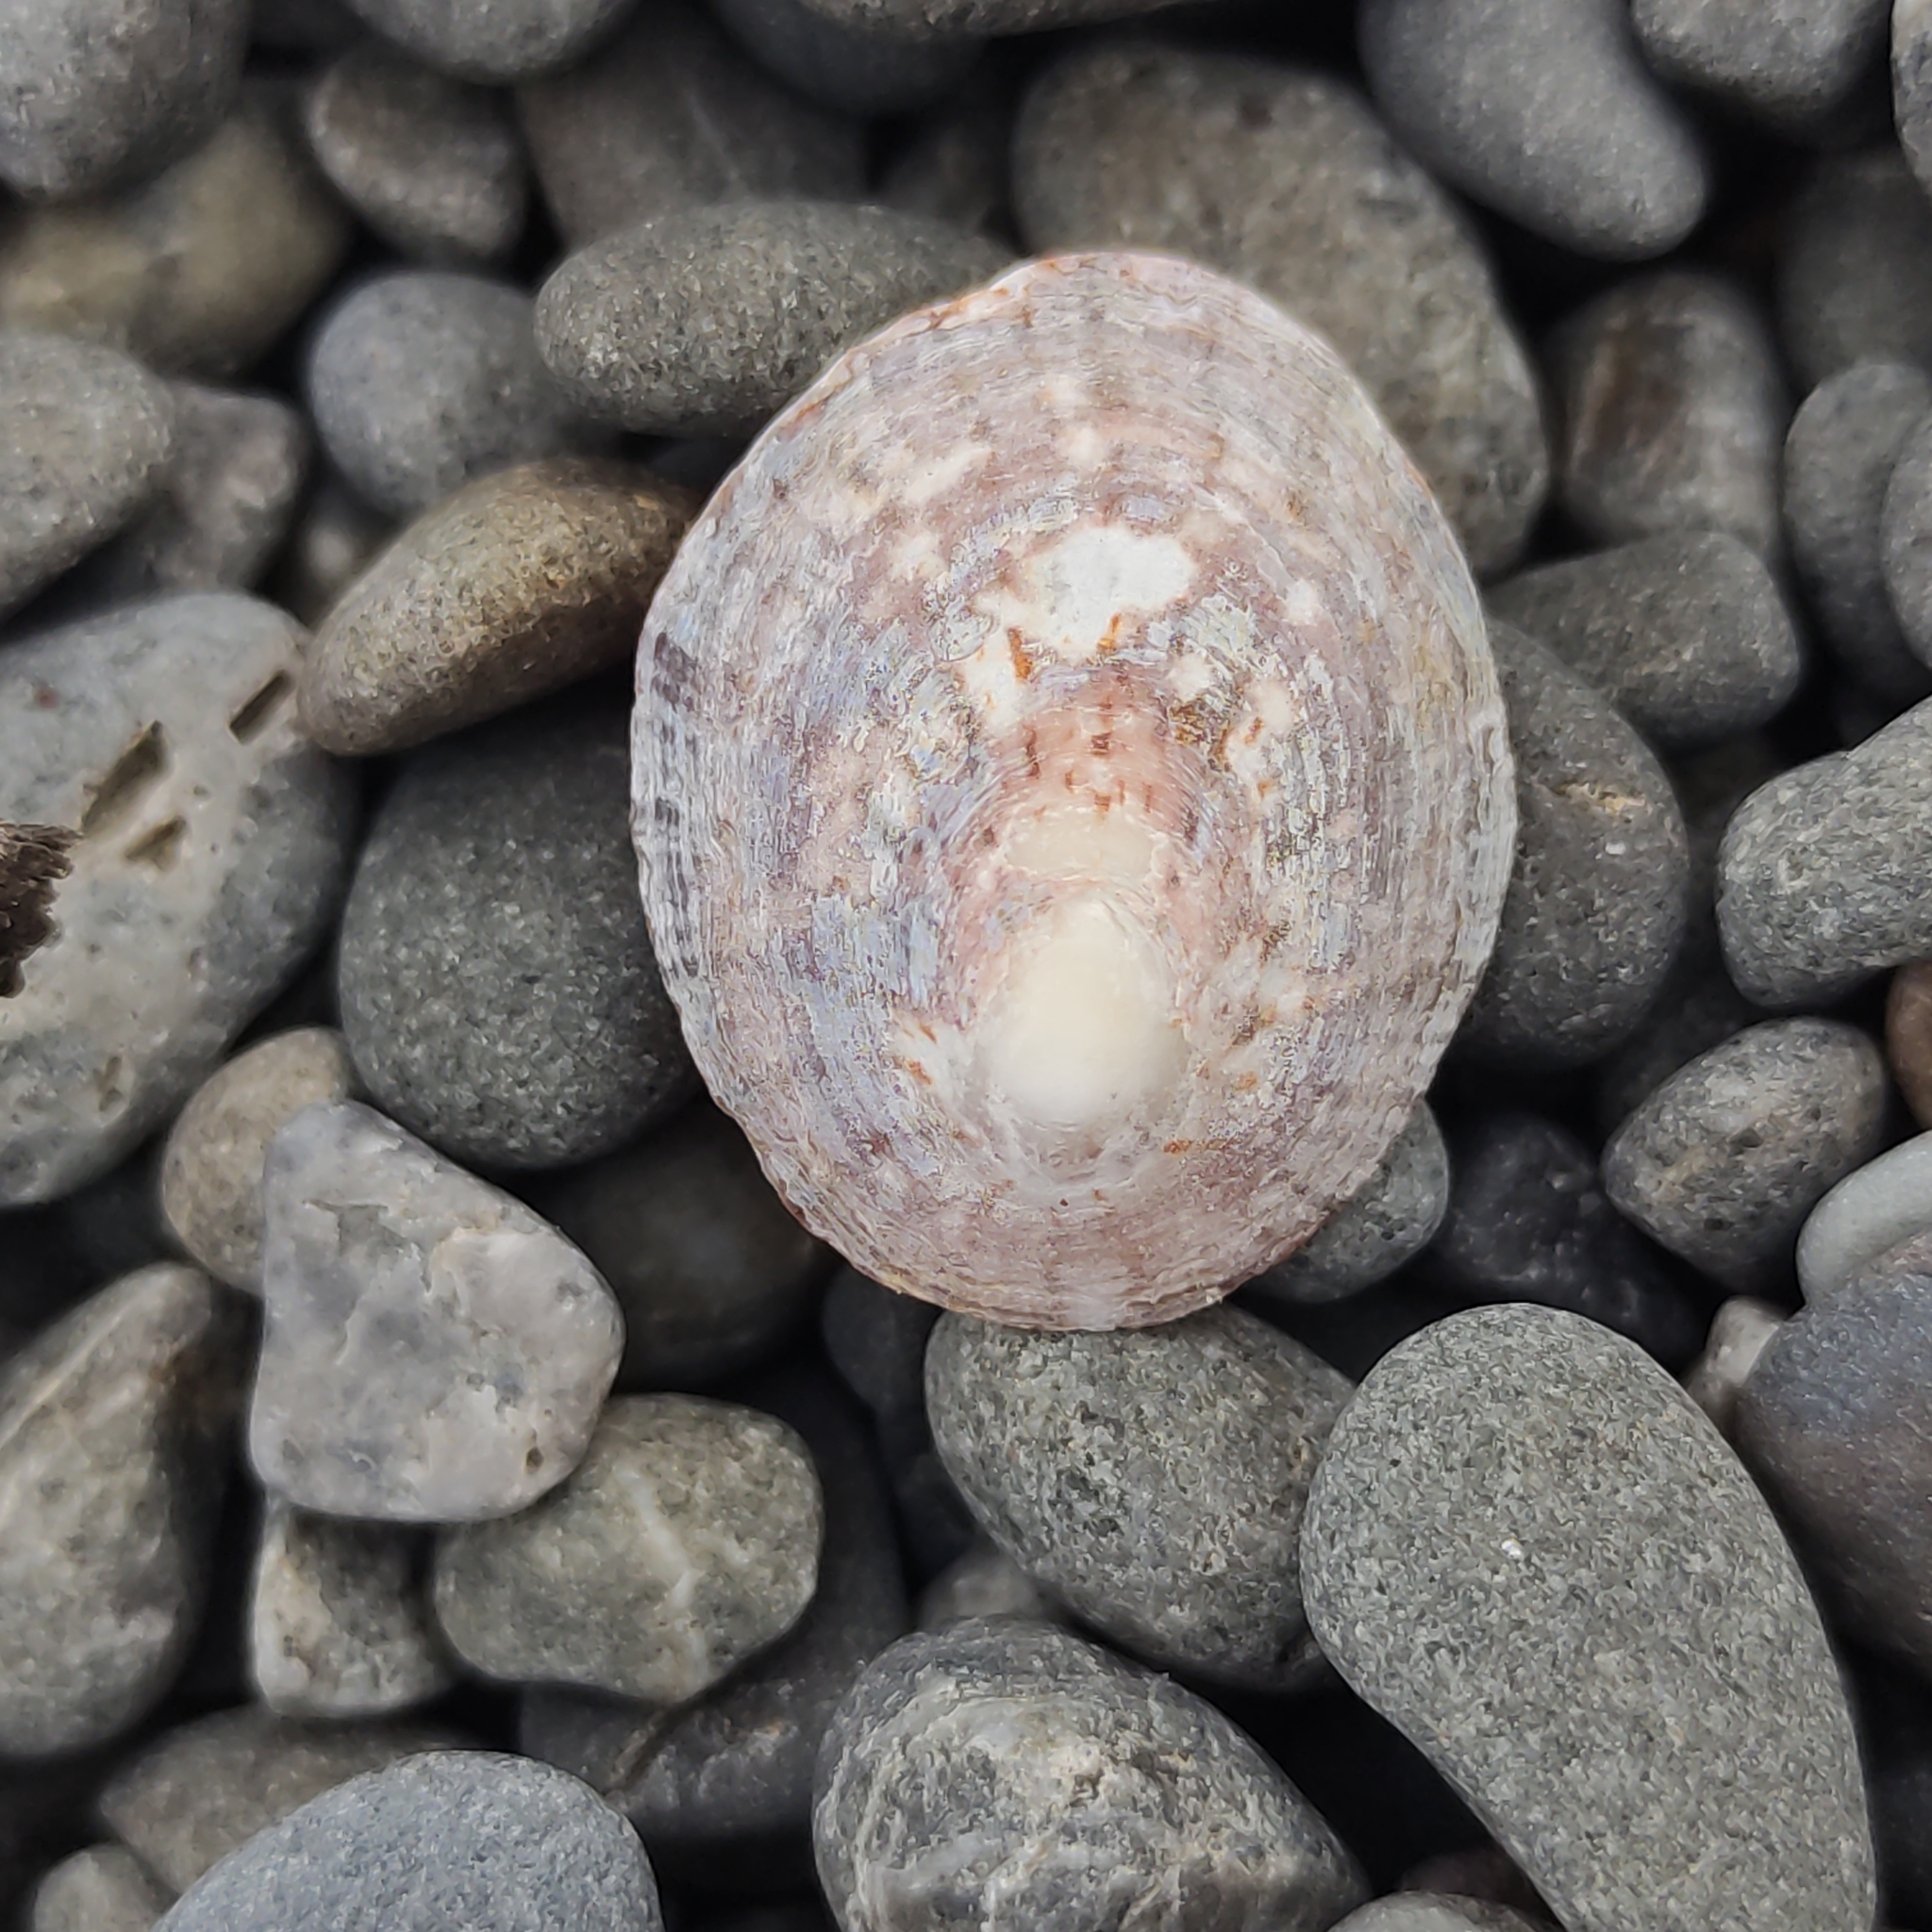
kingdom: Animalia
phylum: Mollusca
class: Gastropoda
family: Nacellidae
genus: Cellana
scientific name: Cellana radians
